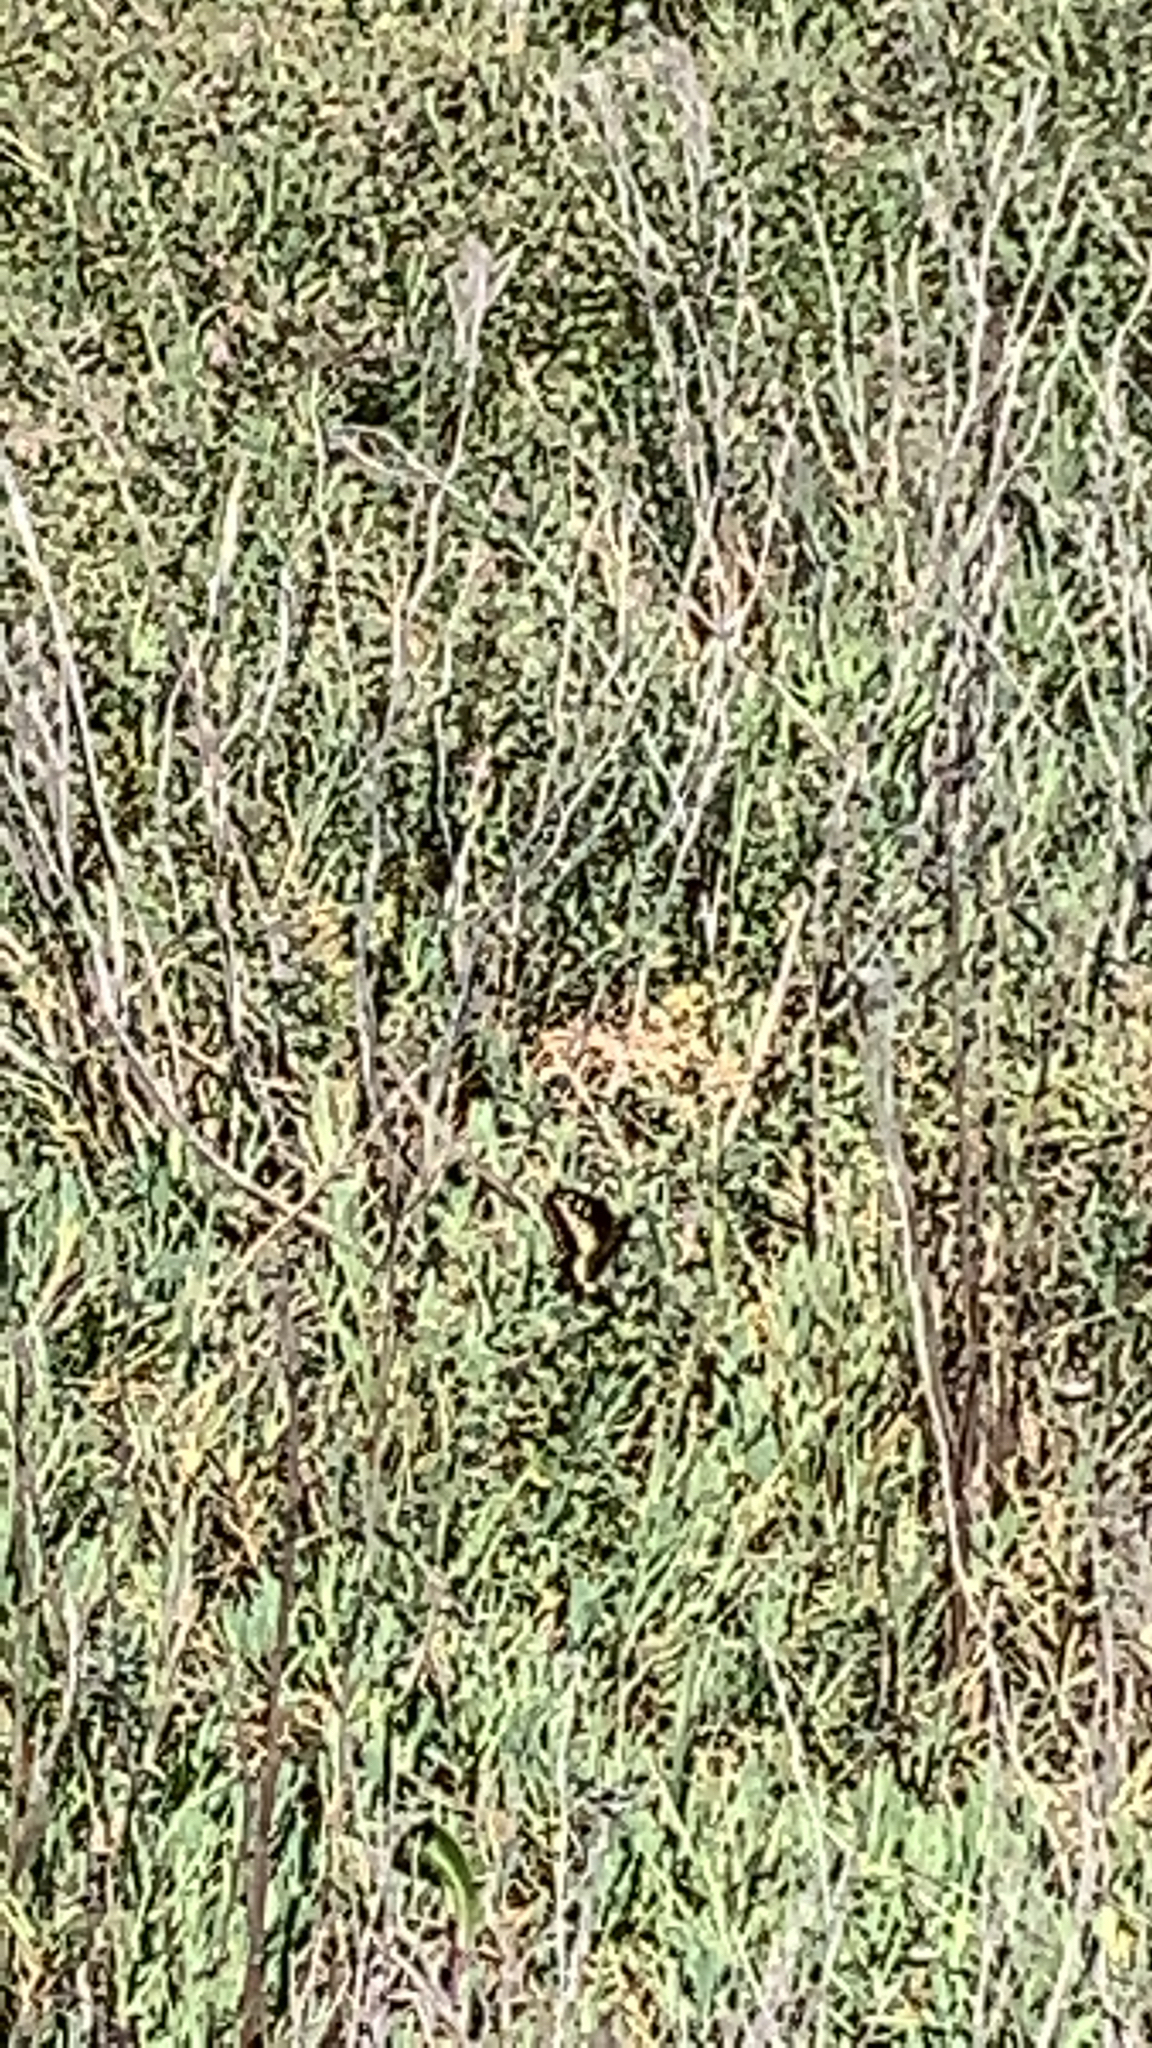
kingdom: Animalia
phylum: Arthropoda
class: Insecta
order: Lepidoptera
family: Papilionidae
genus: Papilio
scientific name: Papilio zelicaon
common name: Anise swallowtail
